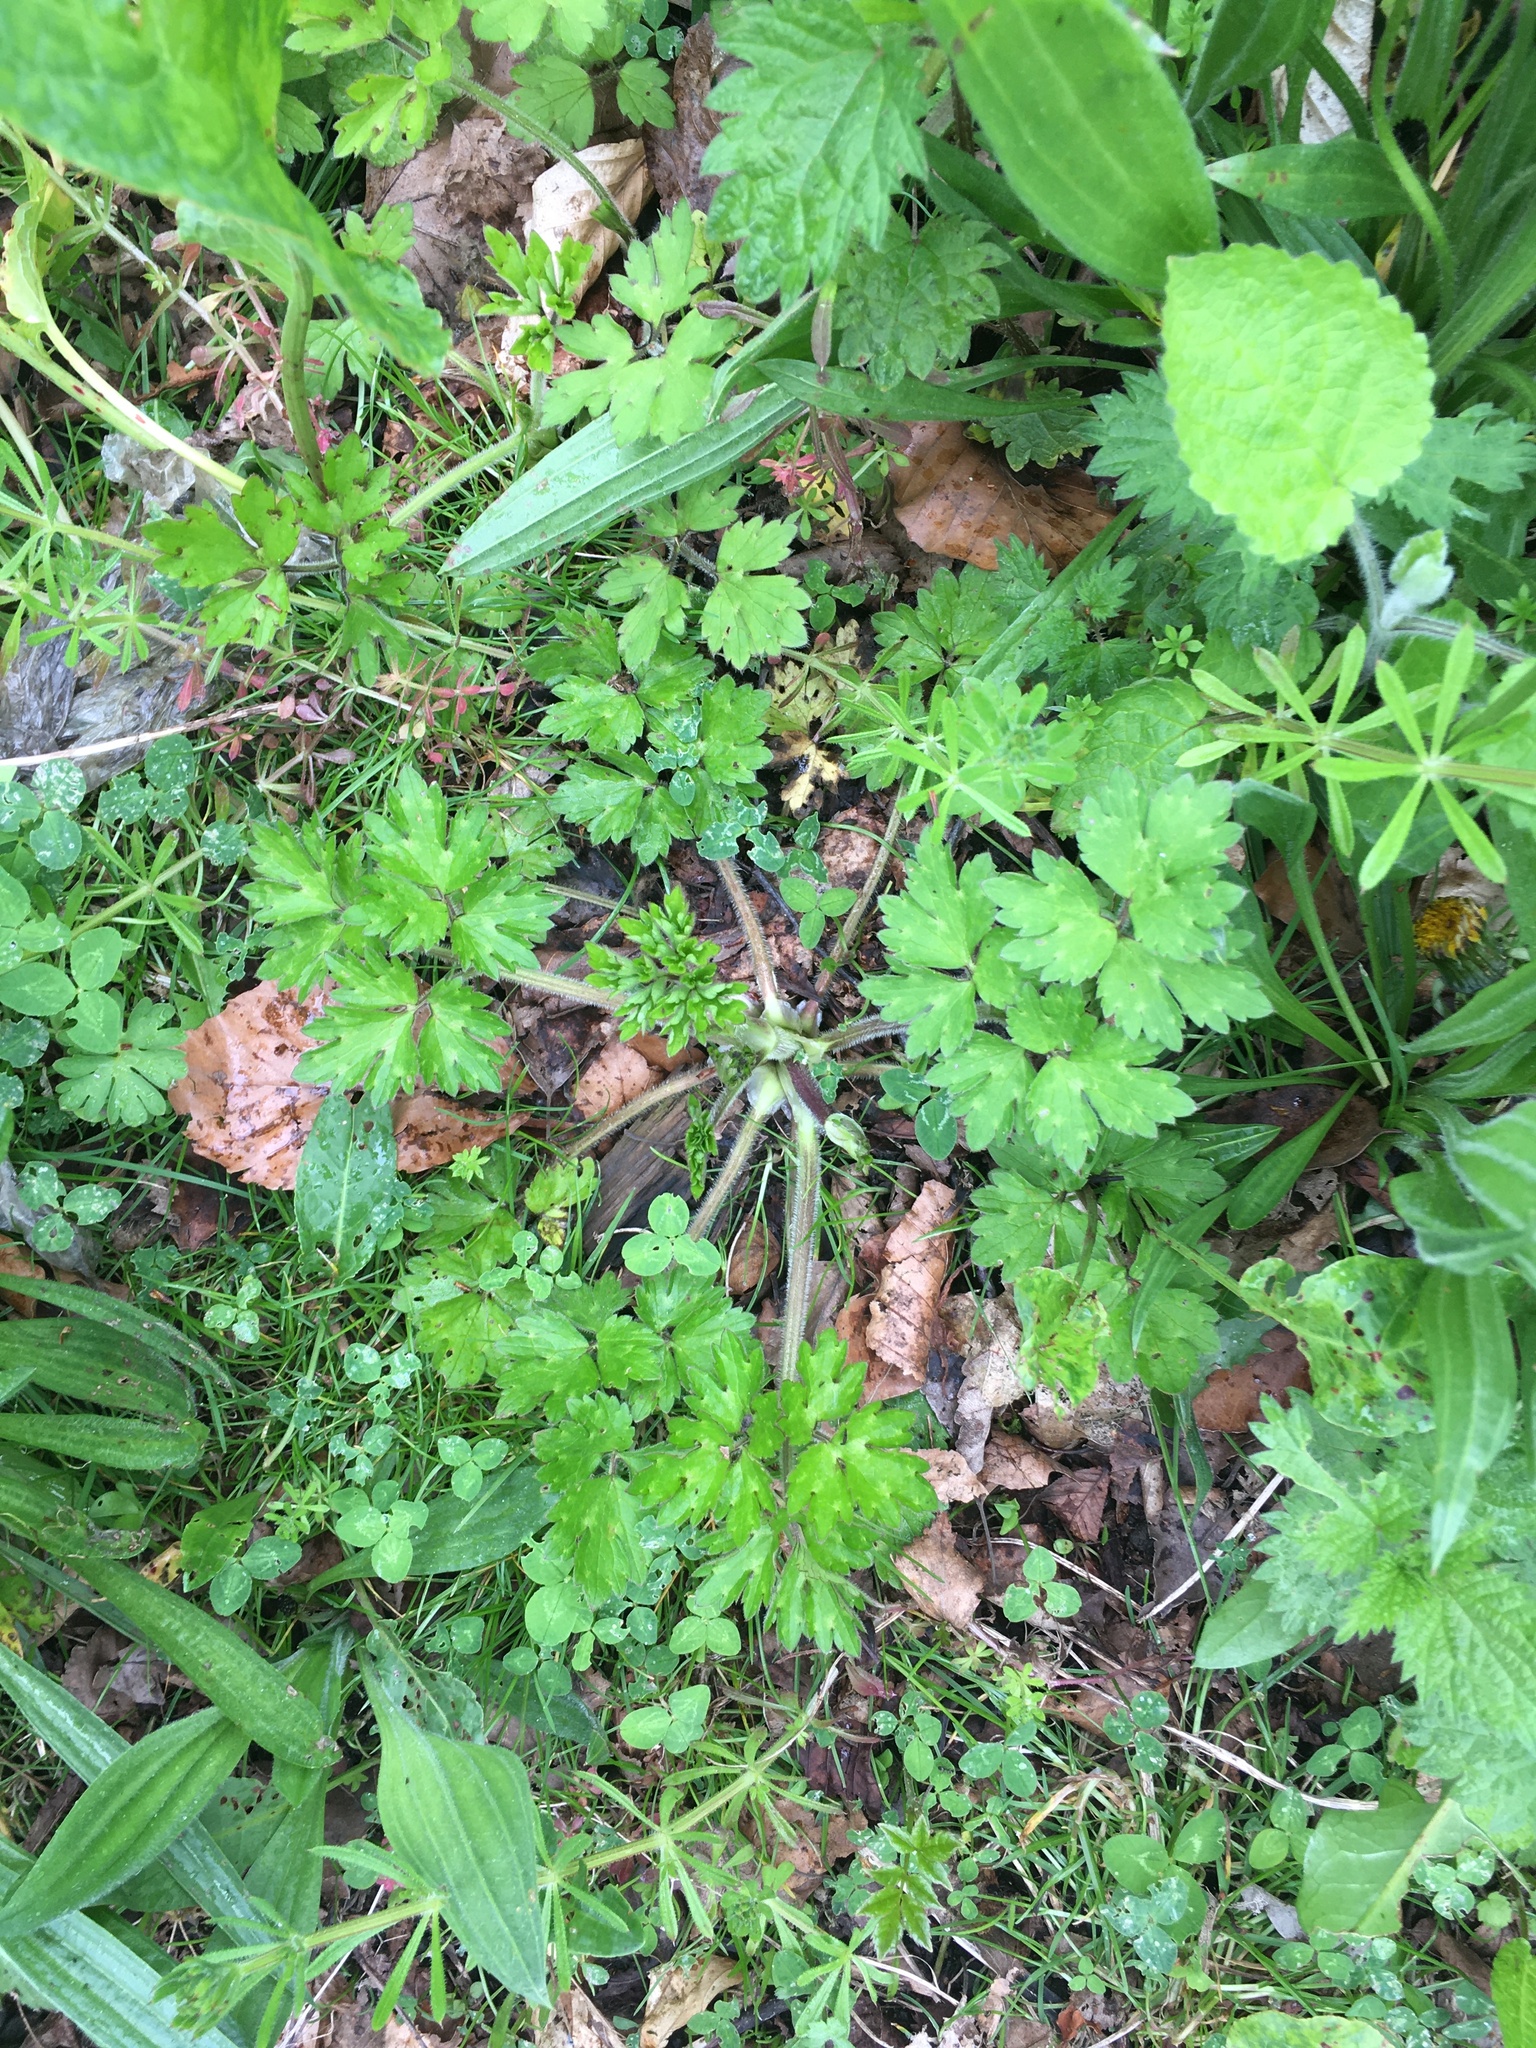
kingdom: Plantae
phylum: Tracheophyta
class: Magnoliopsida
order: Ranunculales
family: Ranunculaceae
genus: Ranunculus
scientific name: Ranunculus repens
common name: Creeping buttercup
